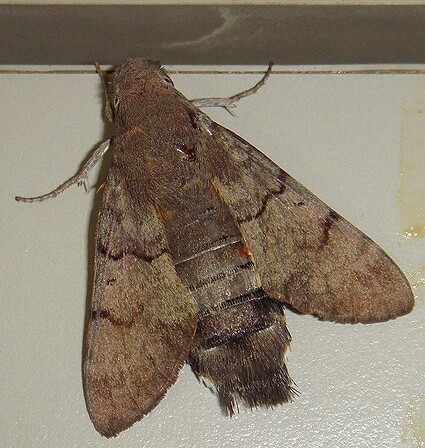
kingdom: Animalia
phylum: Arthropoda
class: Insecta
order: Lepidoptera
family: Sphingidae
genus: Macroglossum
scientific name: Macroglossum stellatarum
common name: Humming-bird hawk-moth
